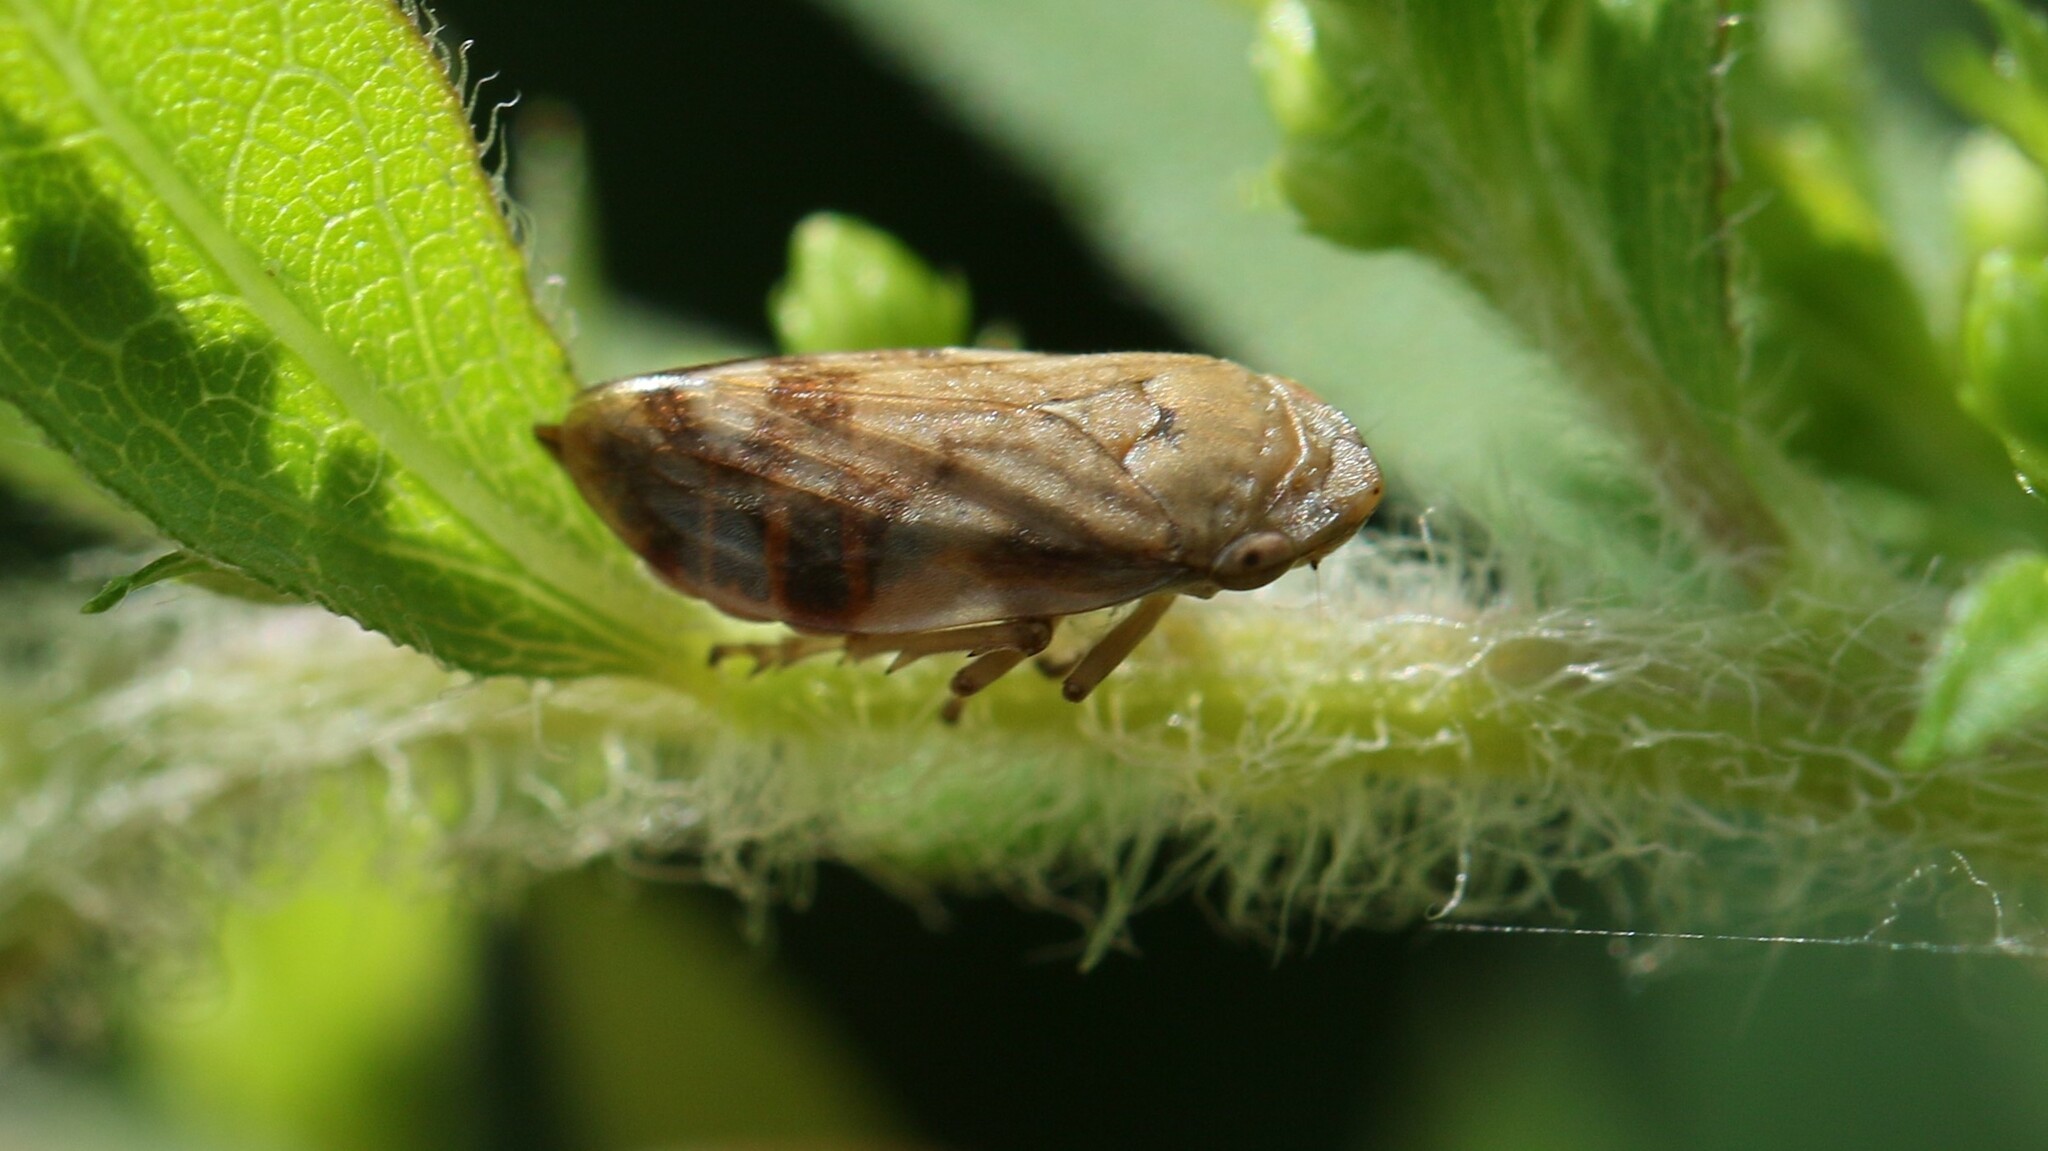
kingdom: Animalia
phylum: Arthropoda
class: Insecta
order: Hemiptera
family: Aphrophoridae
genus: Philaenus
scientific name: Philaenus spumarius
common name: Meadow spittlebug
